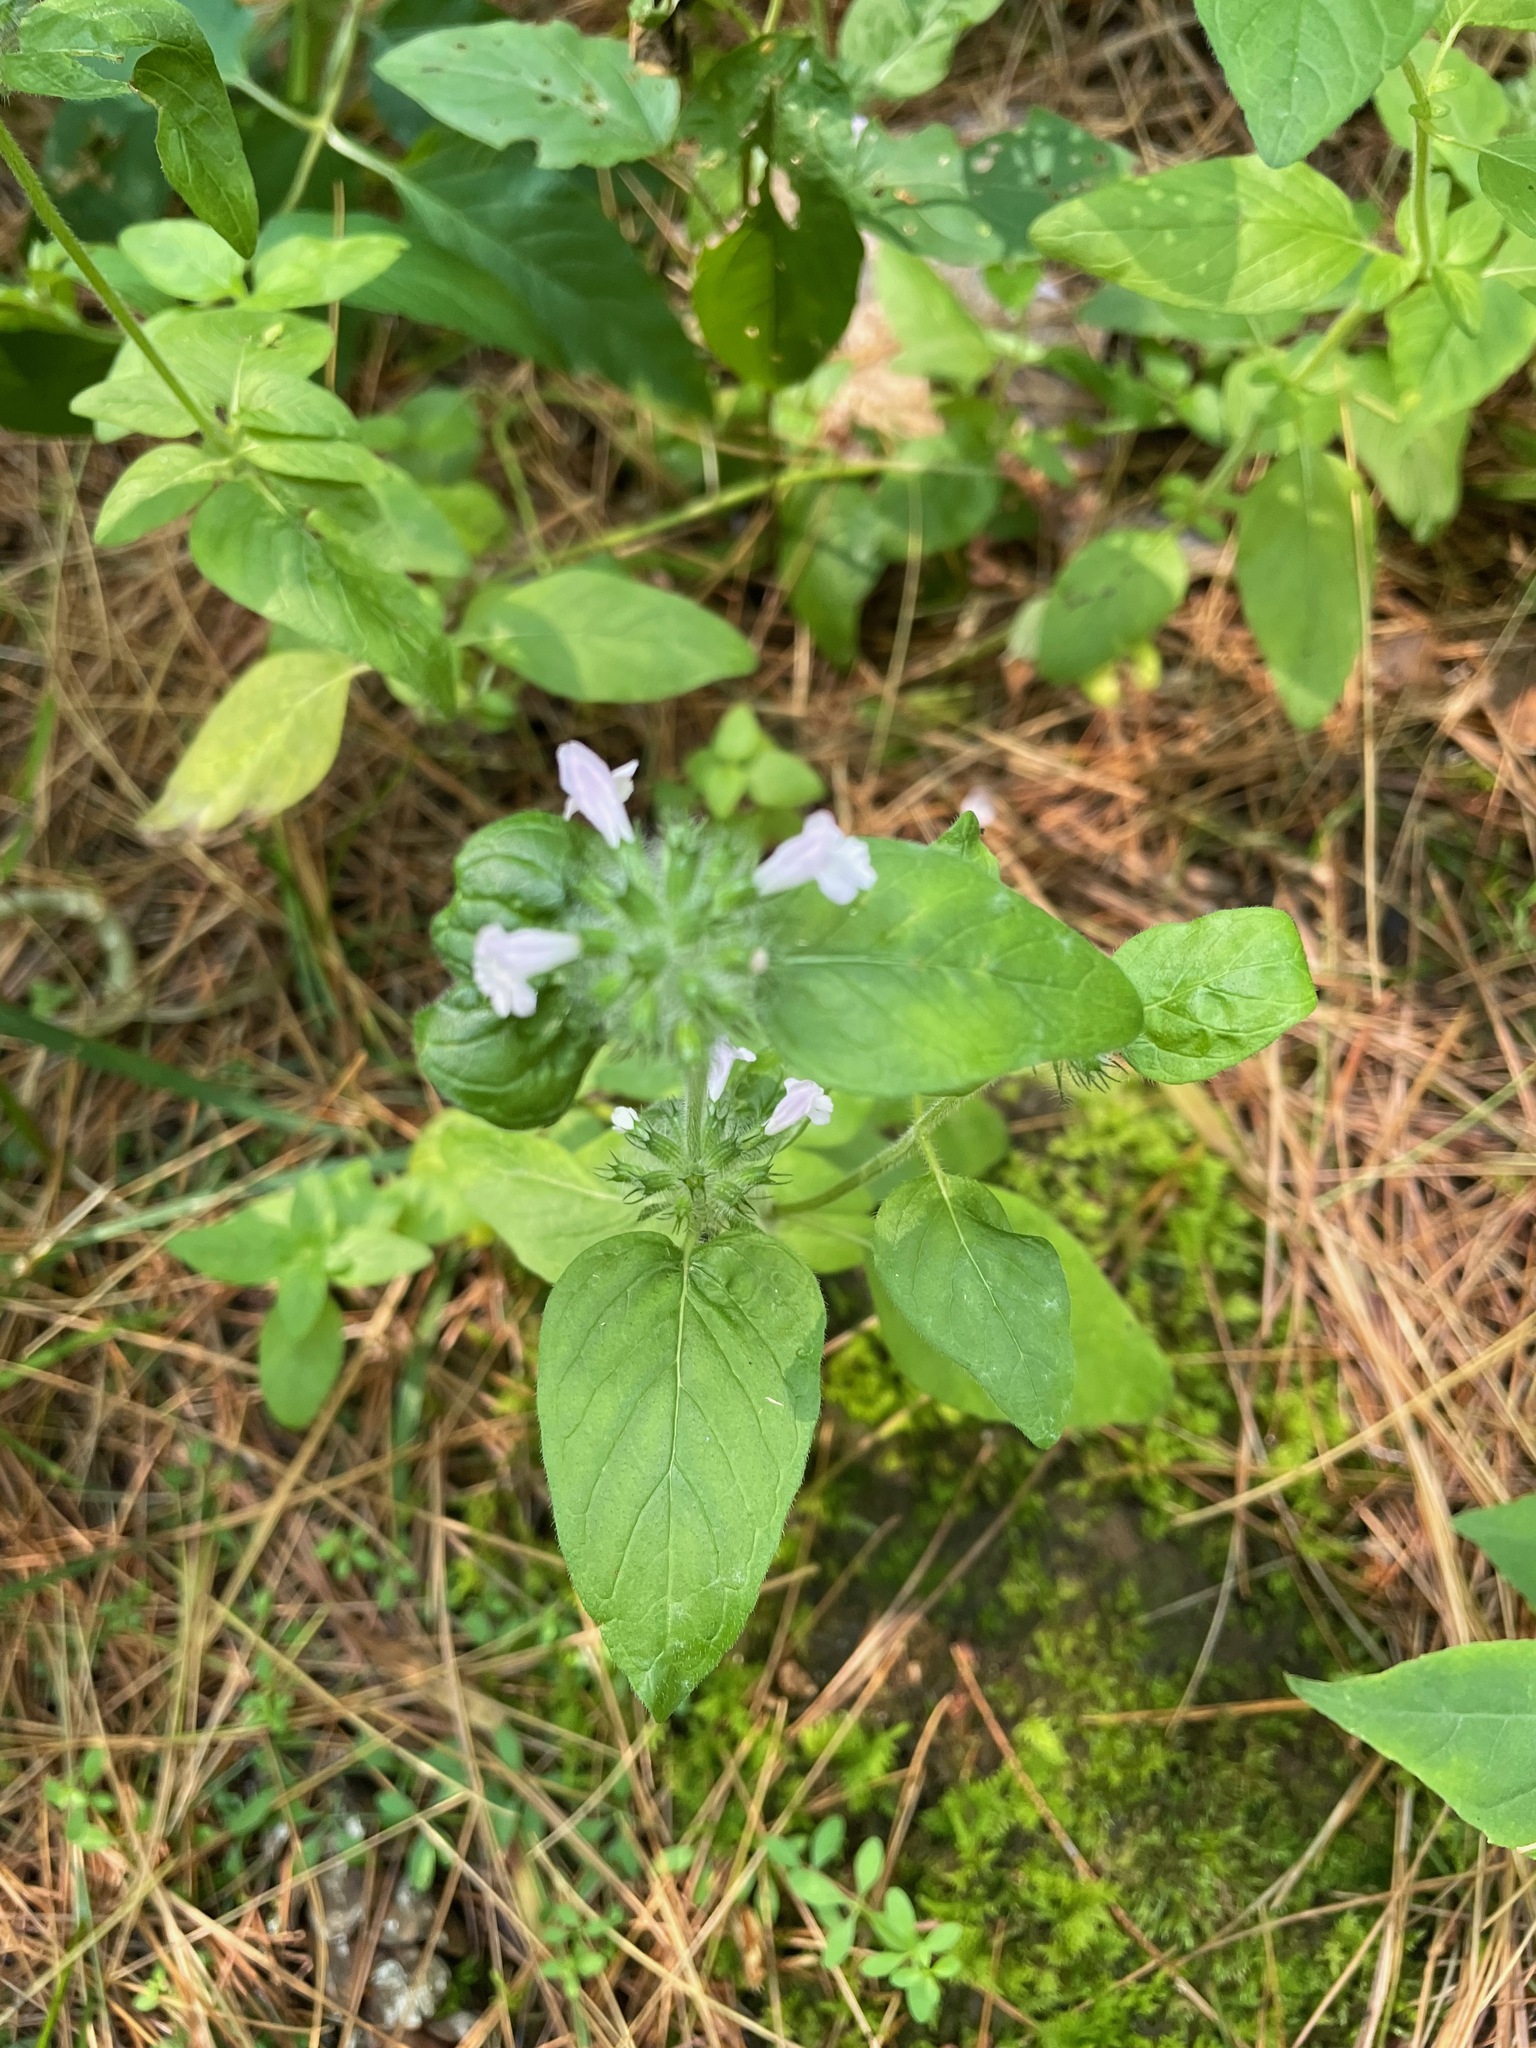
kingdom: Plantae
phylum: Tracheophyta
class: Magnoliopsida
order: Lamiales
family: Lamiaceae
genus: Clinopodium
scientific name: Clinopodium vulgare
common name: Wild basil
